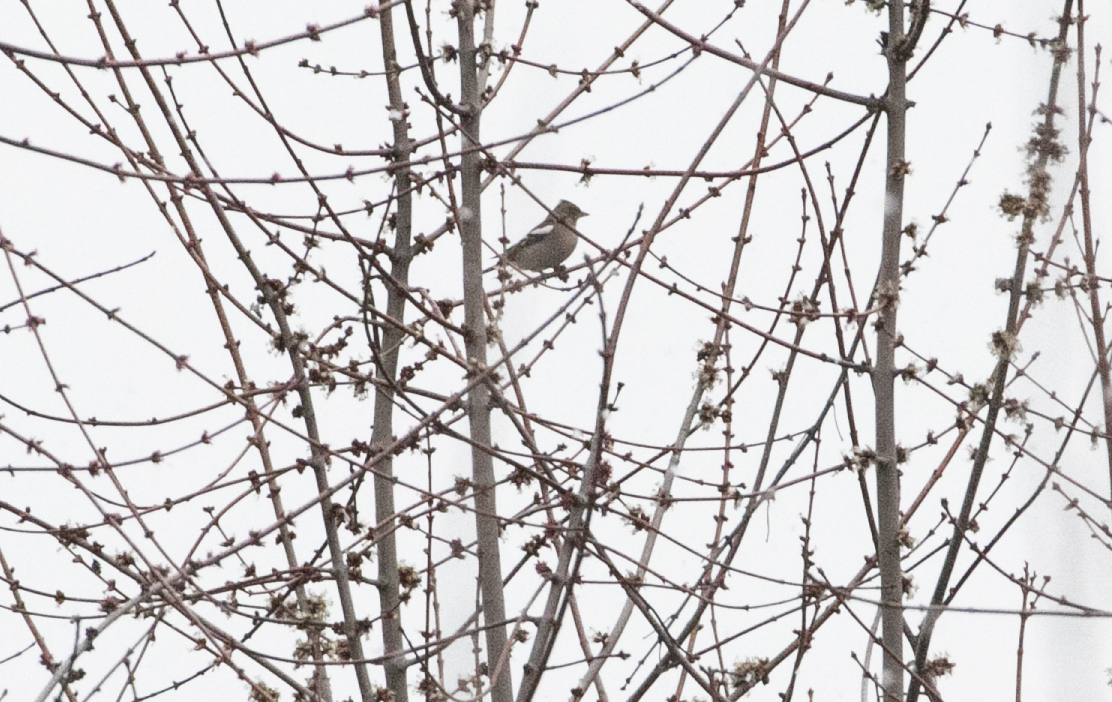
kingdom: Animalia
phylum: Chordata
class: Aves
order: Passeriformes
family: Fringillidae
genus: Fringilla
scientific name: Fringilla coelebs
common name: Common chaffinch
